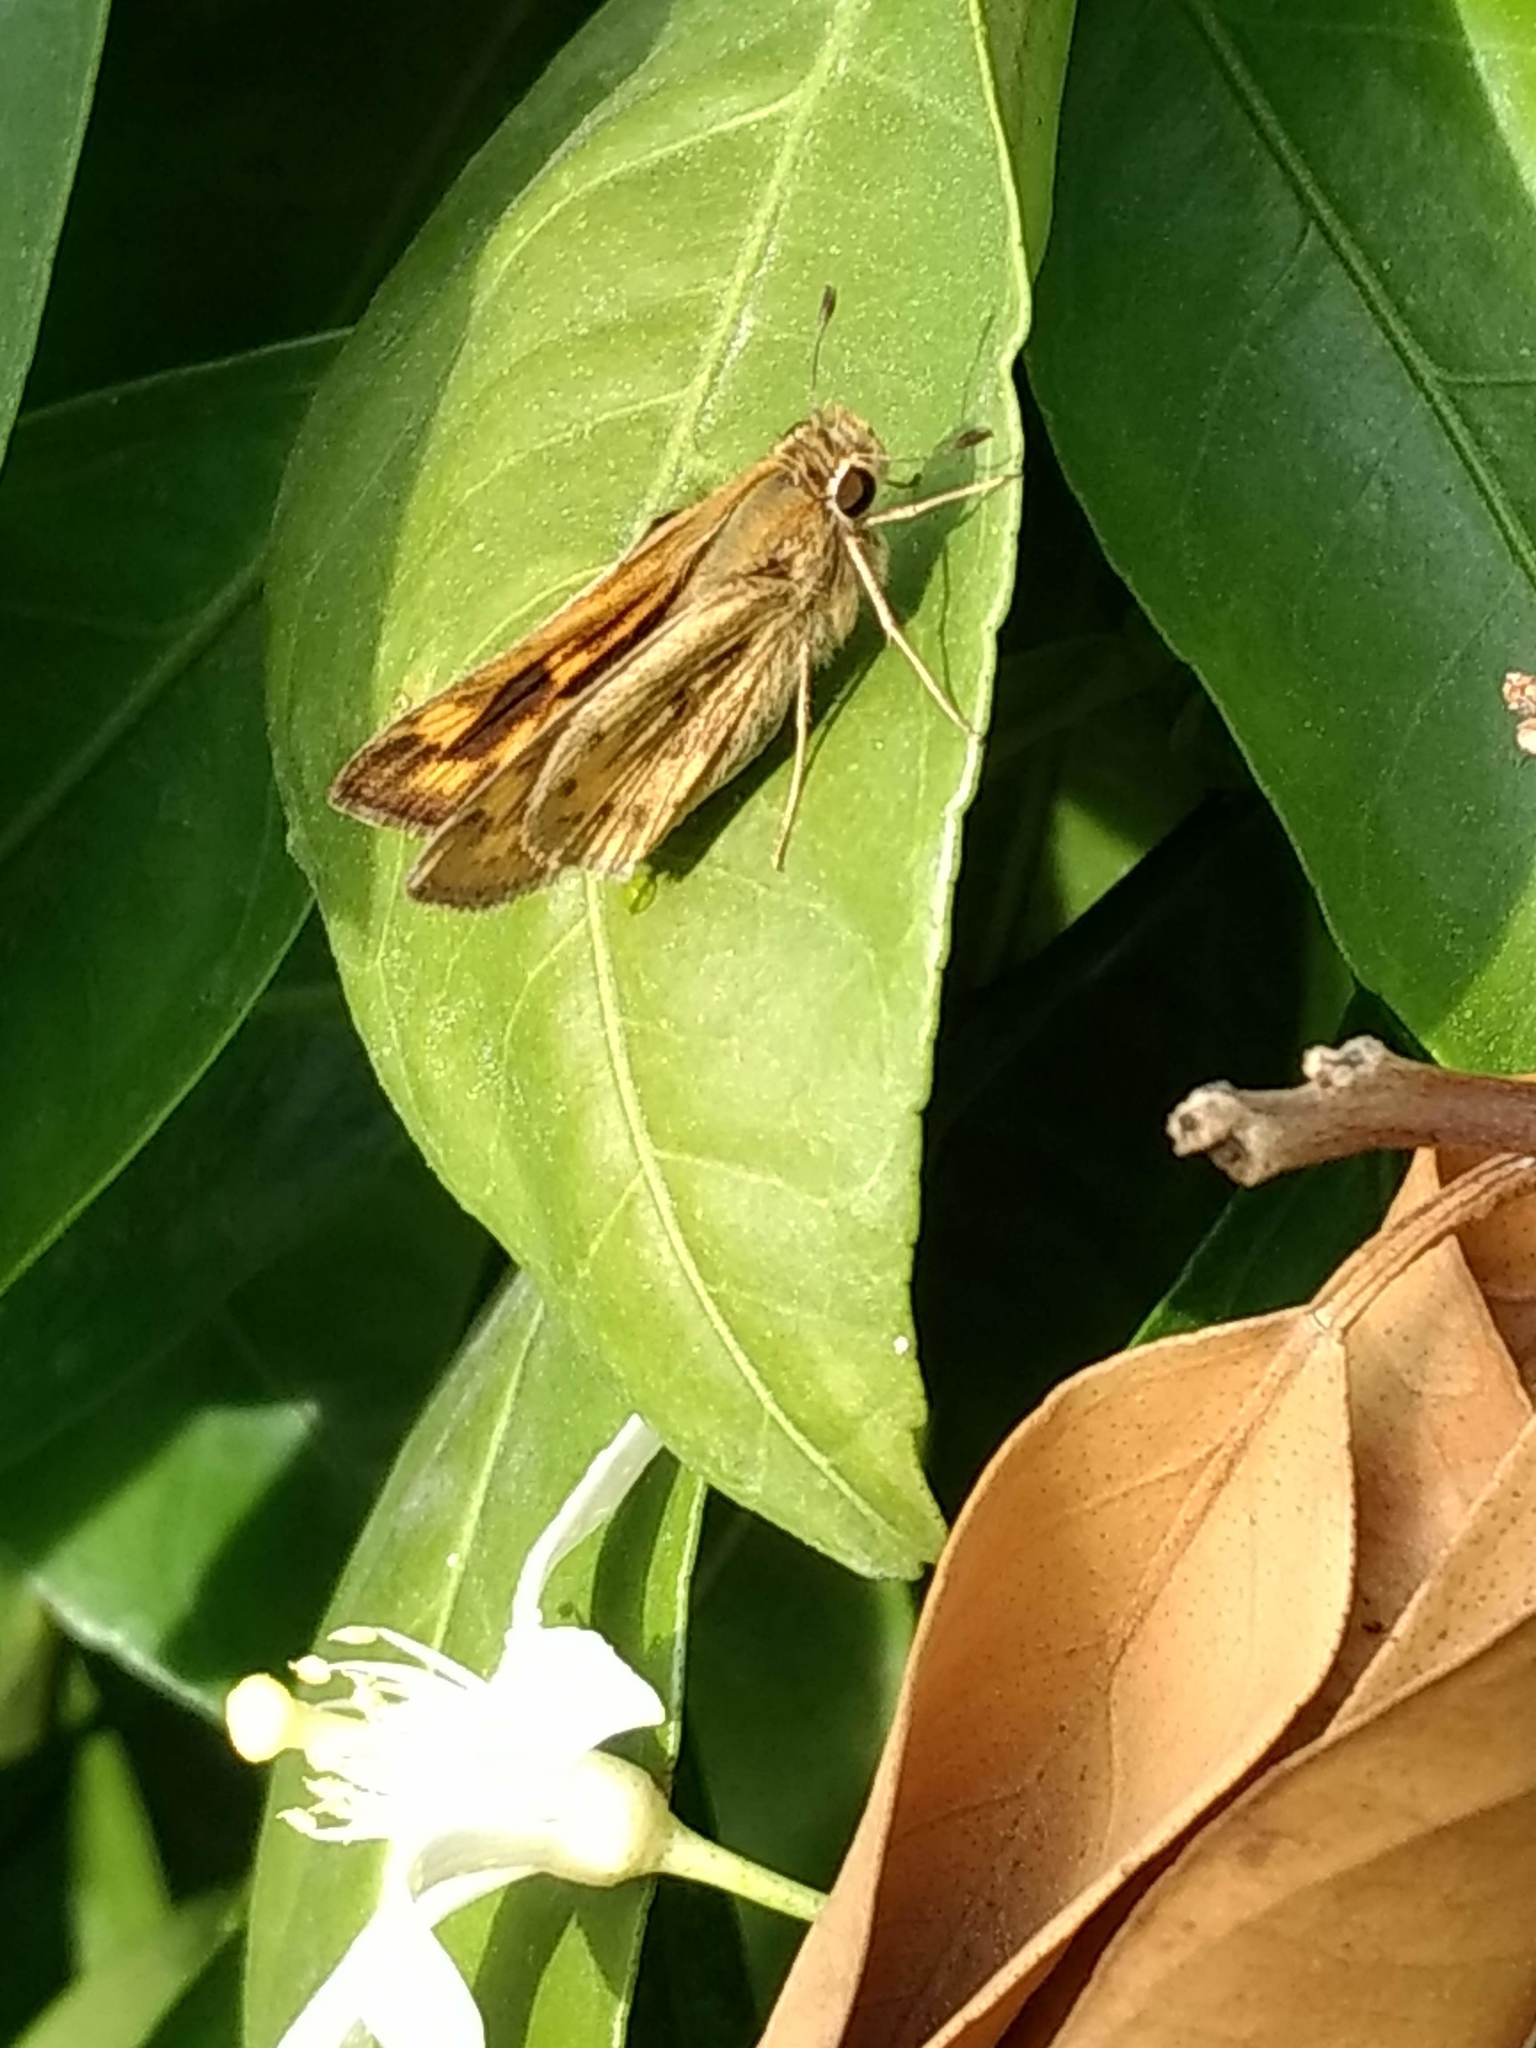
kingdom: Animalia
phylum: Arthropoda
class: Insecta
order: Lepidoptera
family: Hesperiidae
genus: Hylephila
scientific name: Hylephila phyleus
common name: Fiery skipper
